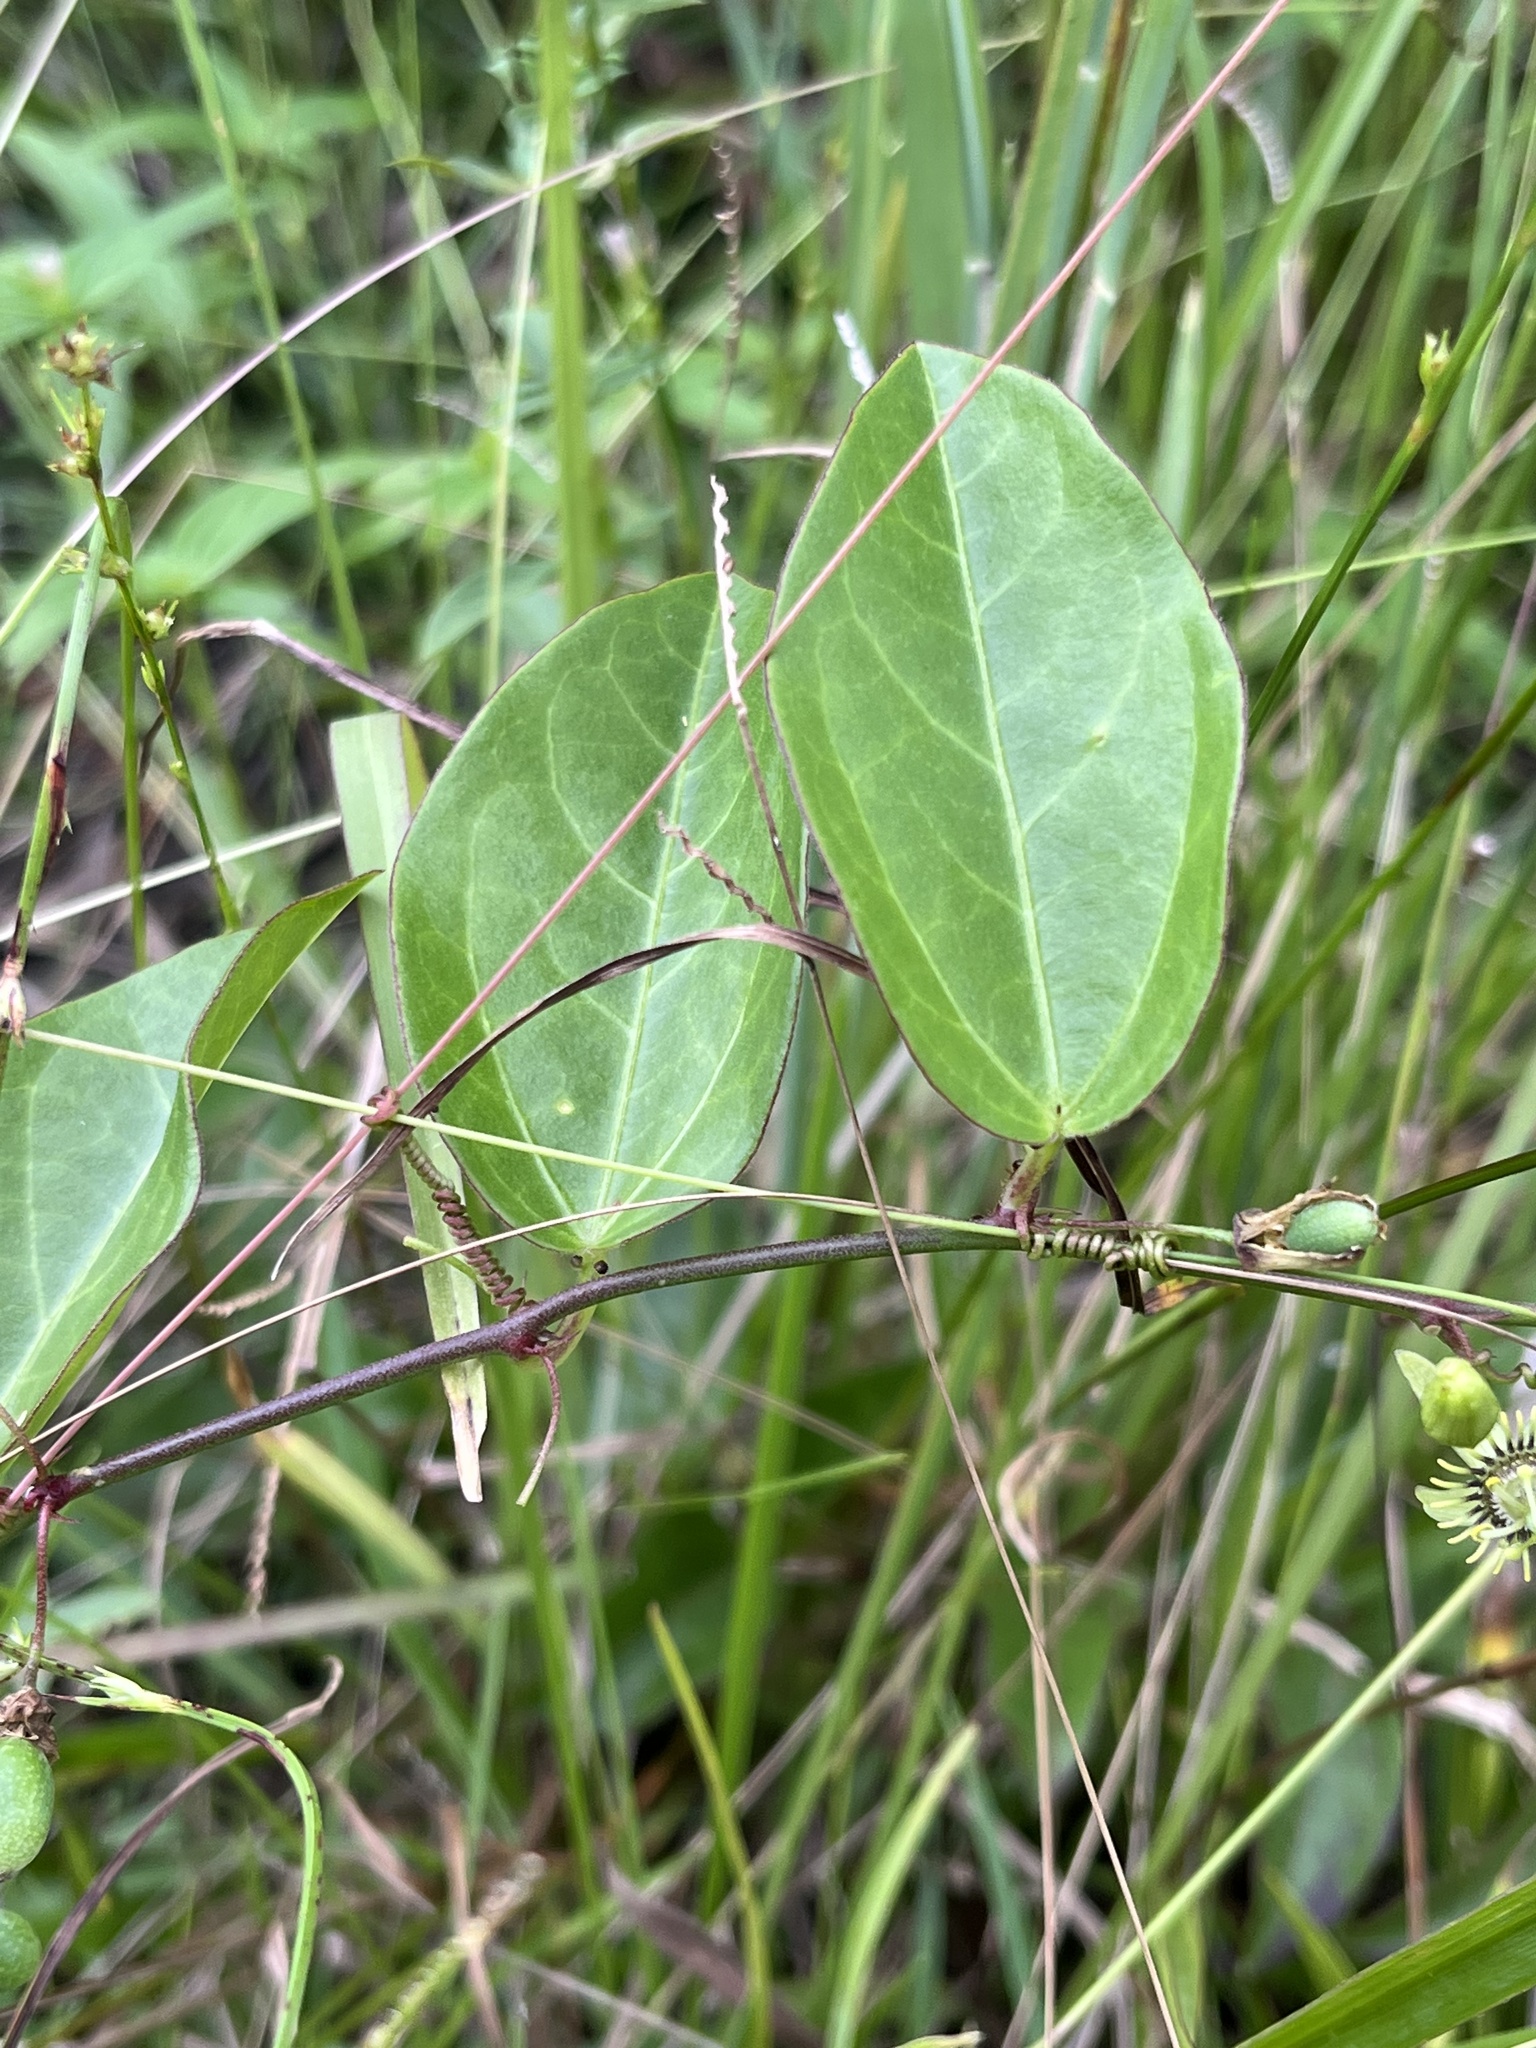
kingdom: Plantae
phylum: Tracheophyta
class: Magnoliopsida
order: Malpighiales
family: Passifloraceae
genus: Passiflora
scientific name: Passiflora pallida
